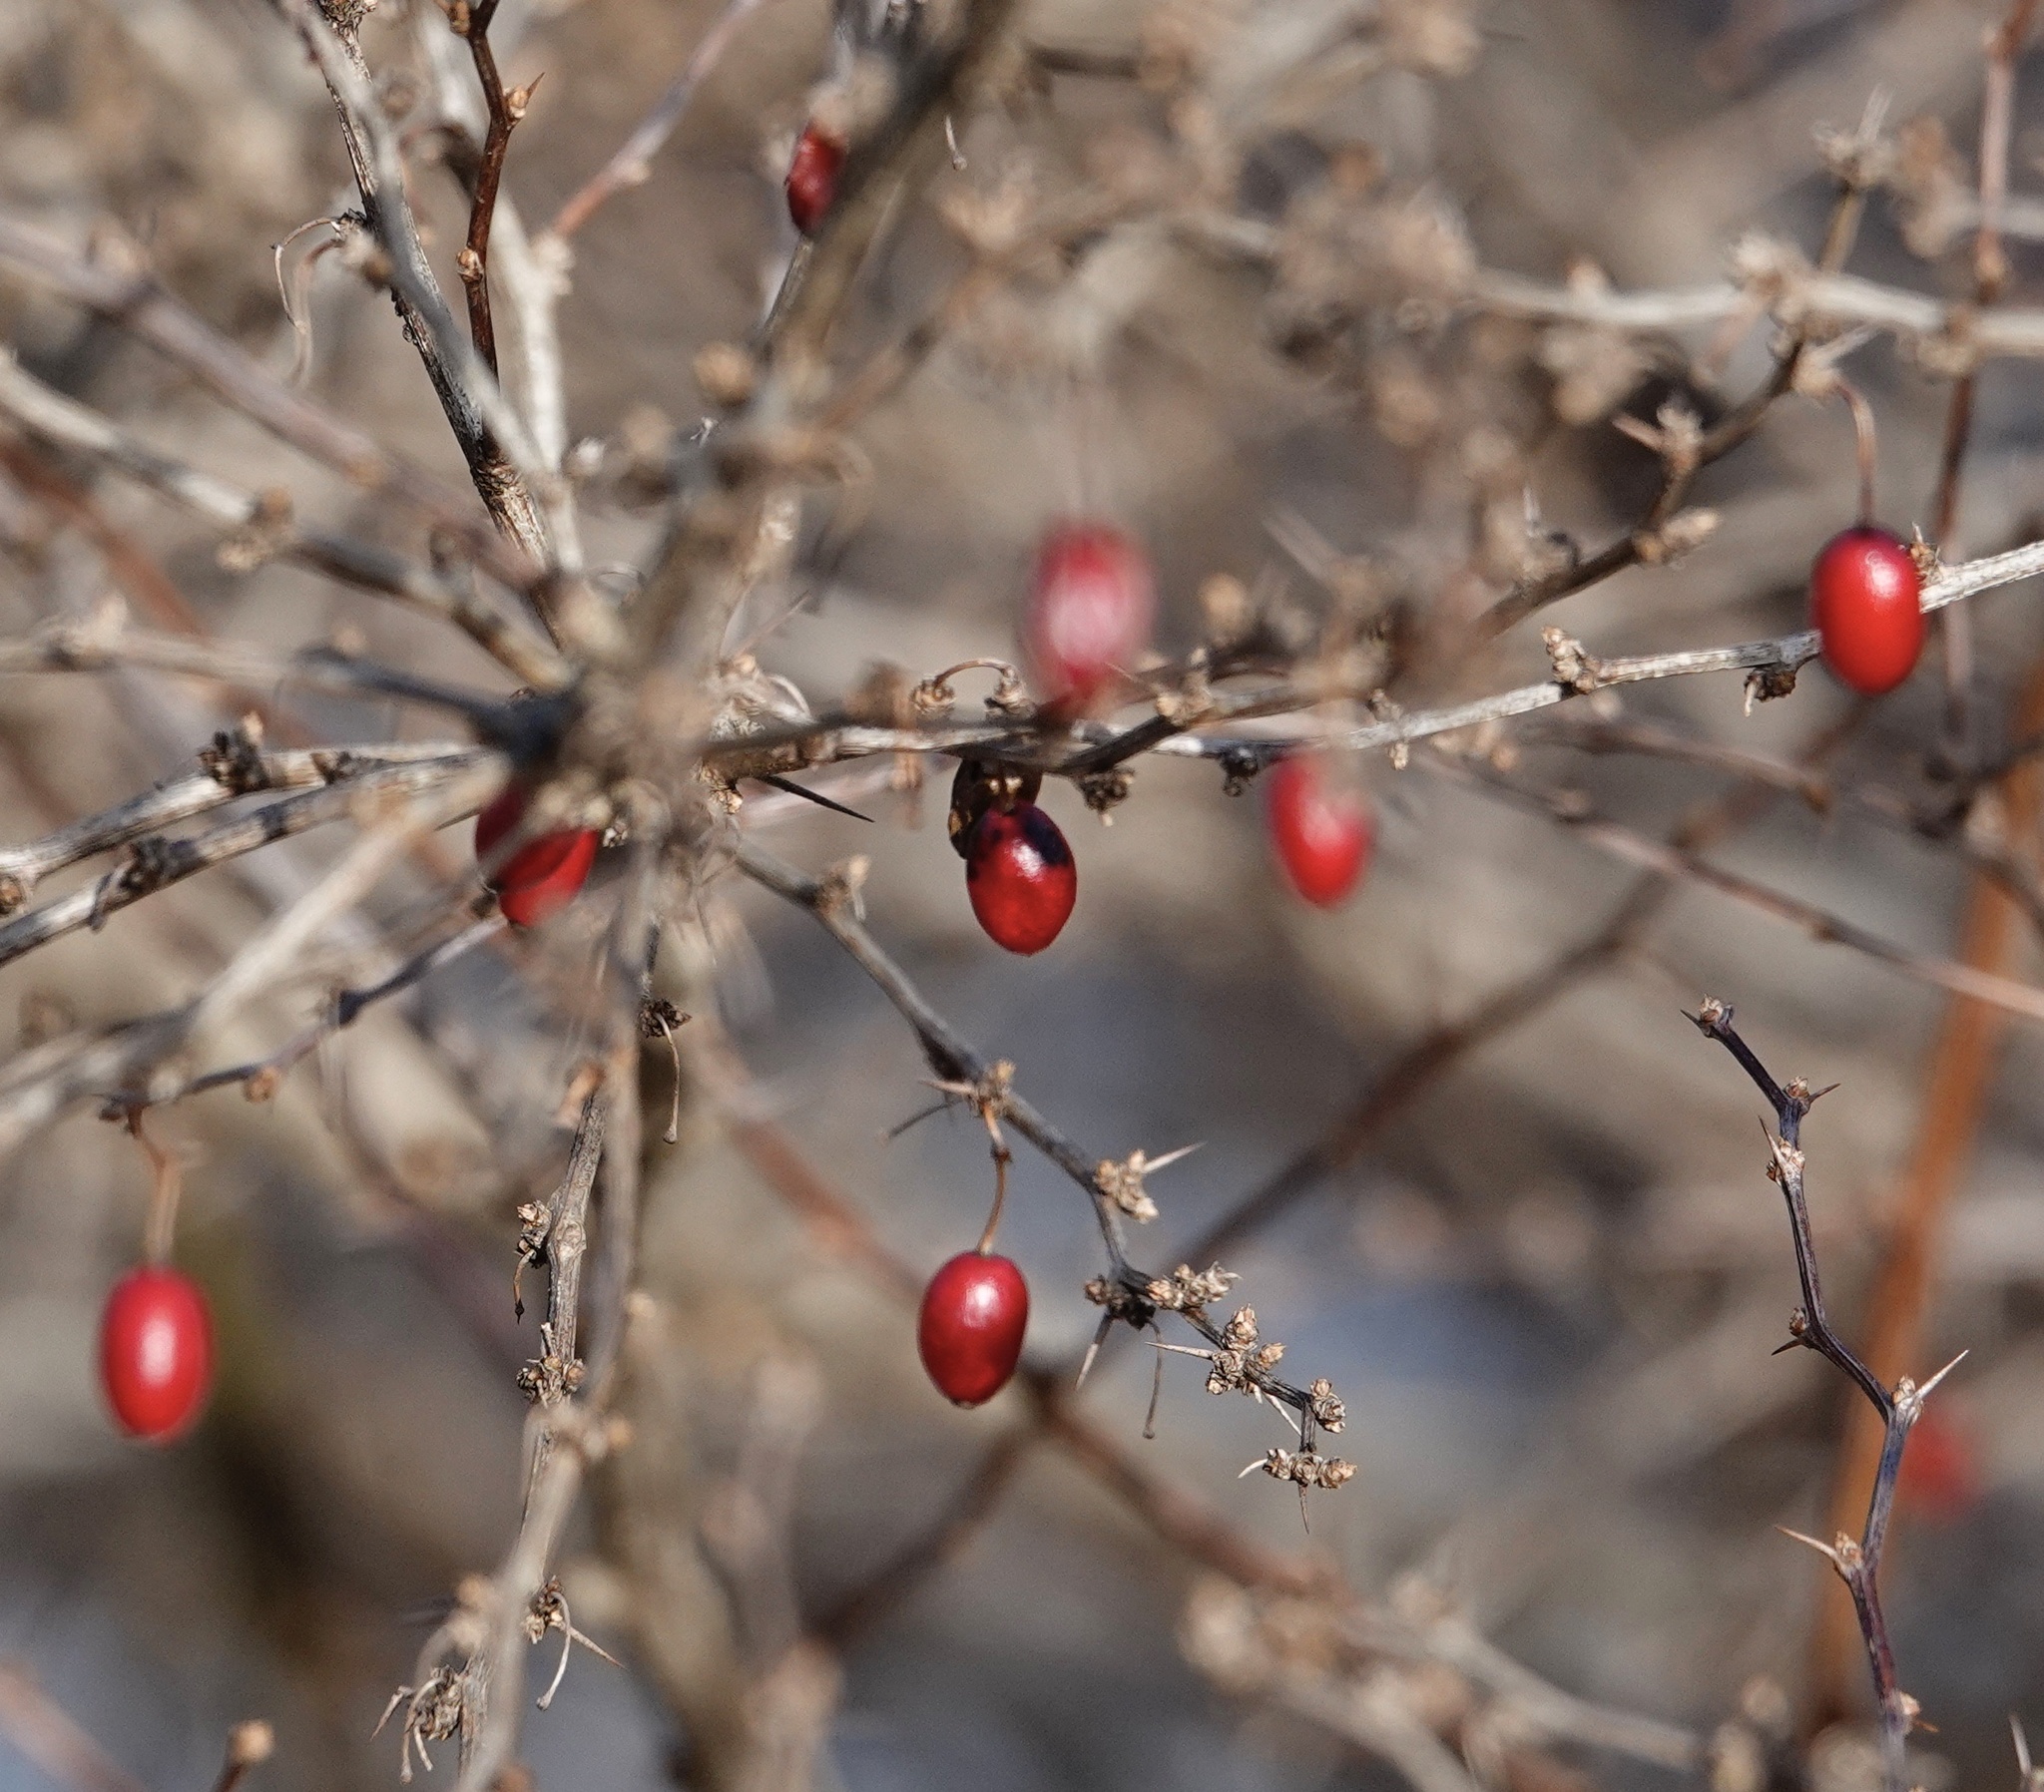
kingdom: Plantae
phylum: Tracheophyta
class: Magnoliopsida
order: Ranunculales
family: Berberidaceae
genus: Berberis
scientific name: Berberis thunbergii
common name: Japanese barberry
